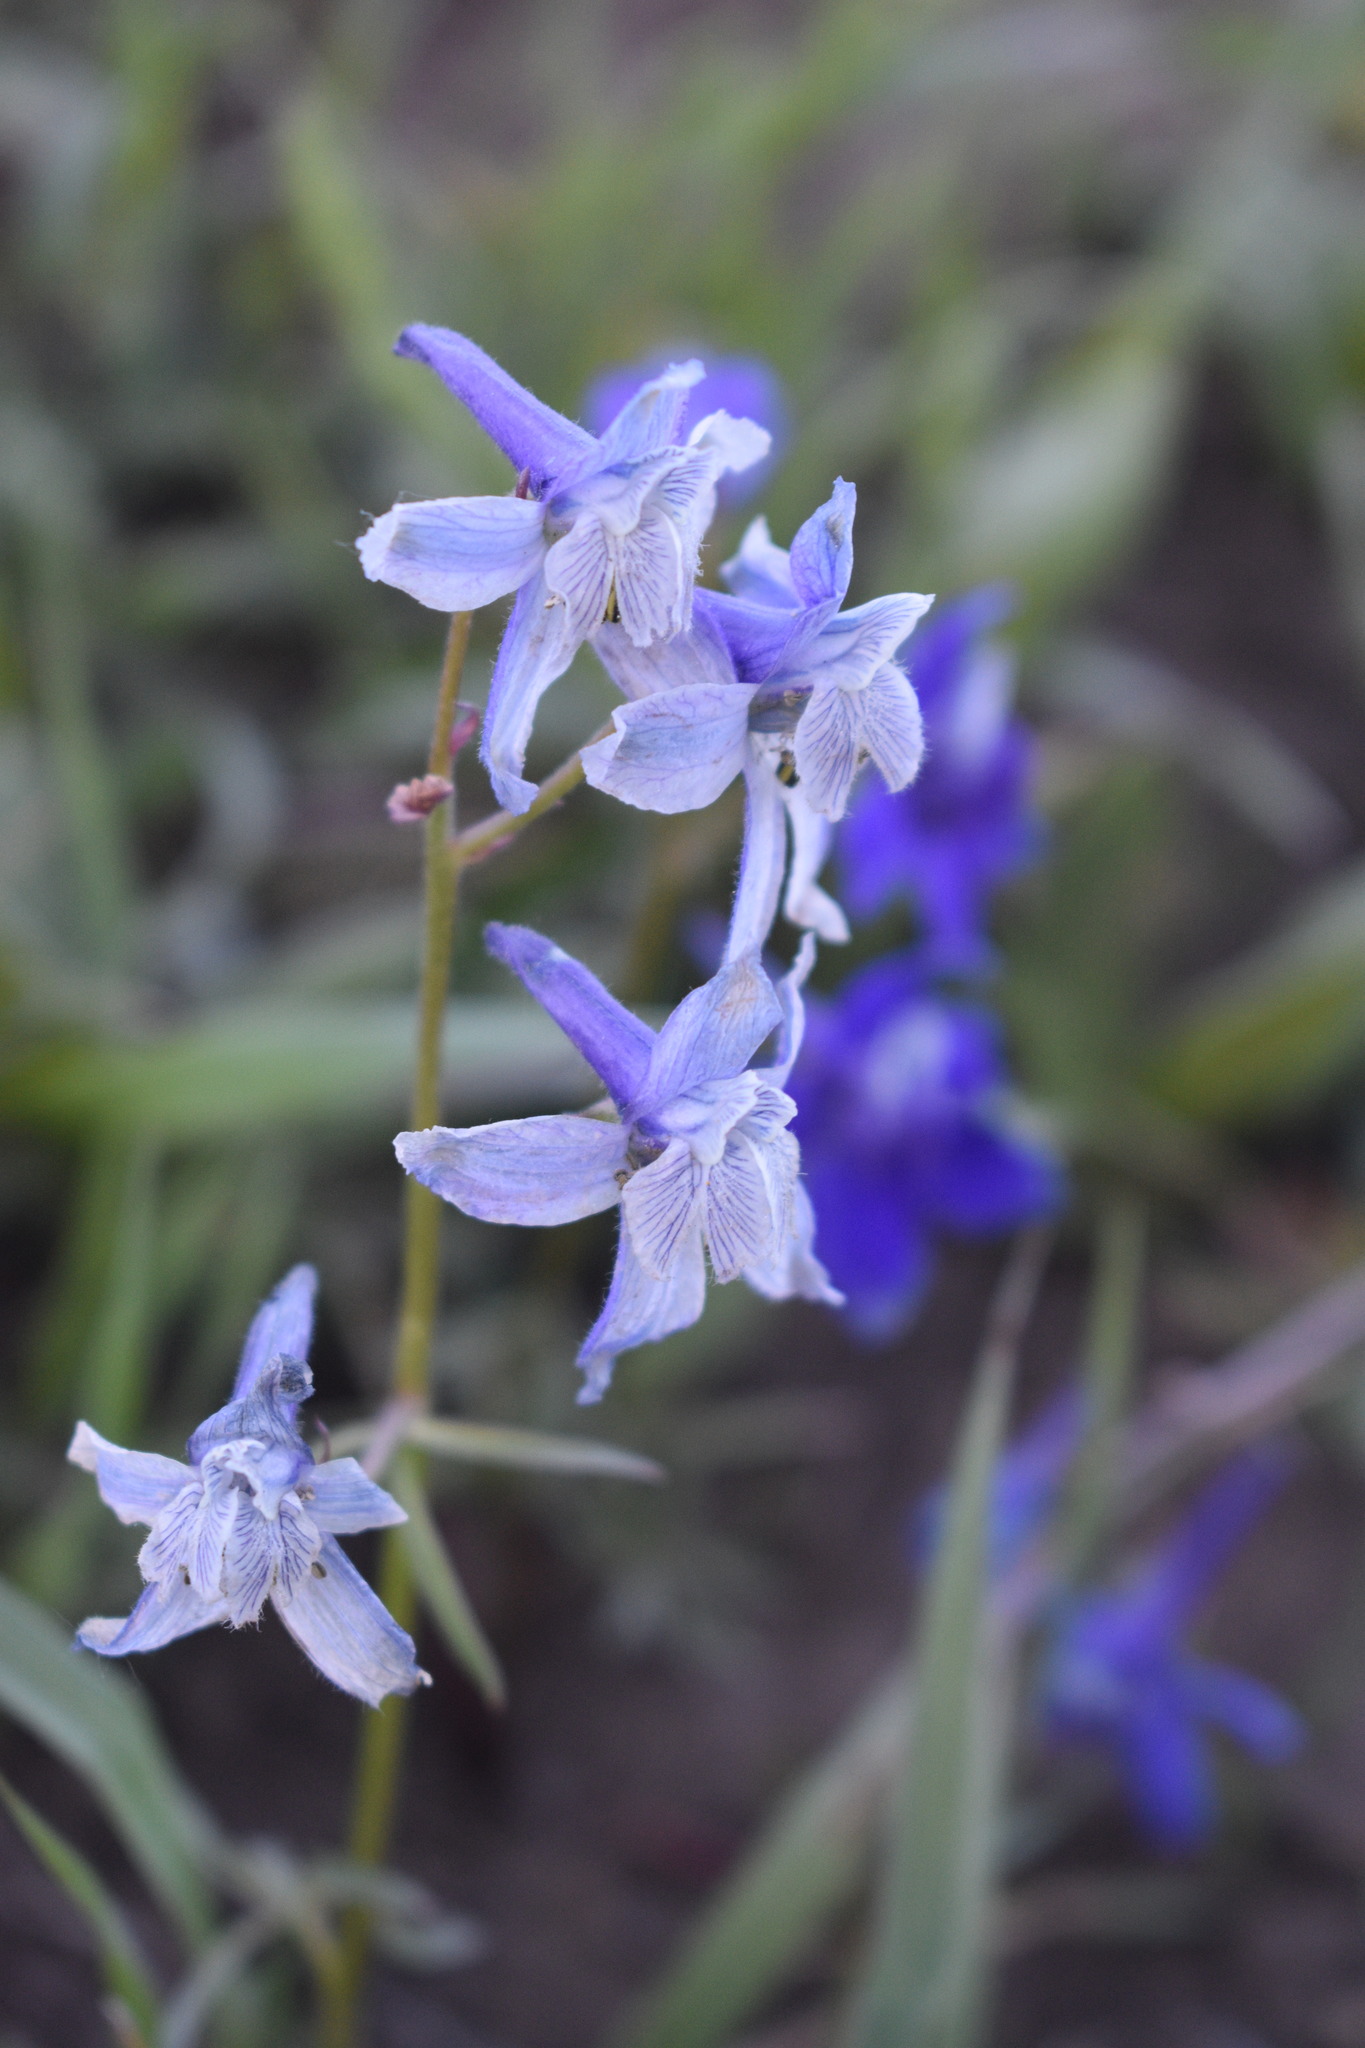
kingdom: Plantae
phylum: Tracheophyta
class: Magnoliopsida
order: Ranunculales
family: Ranunculaceae
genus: Delphinium
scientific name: Delphinium nuttallianum
